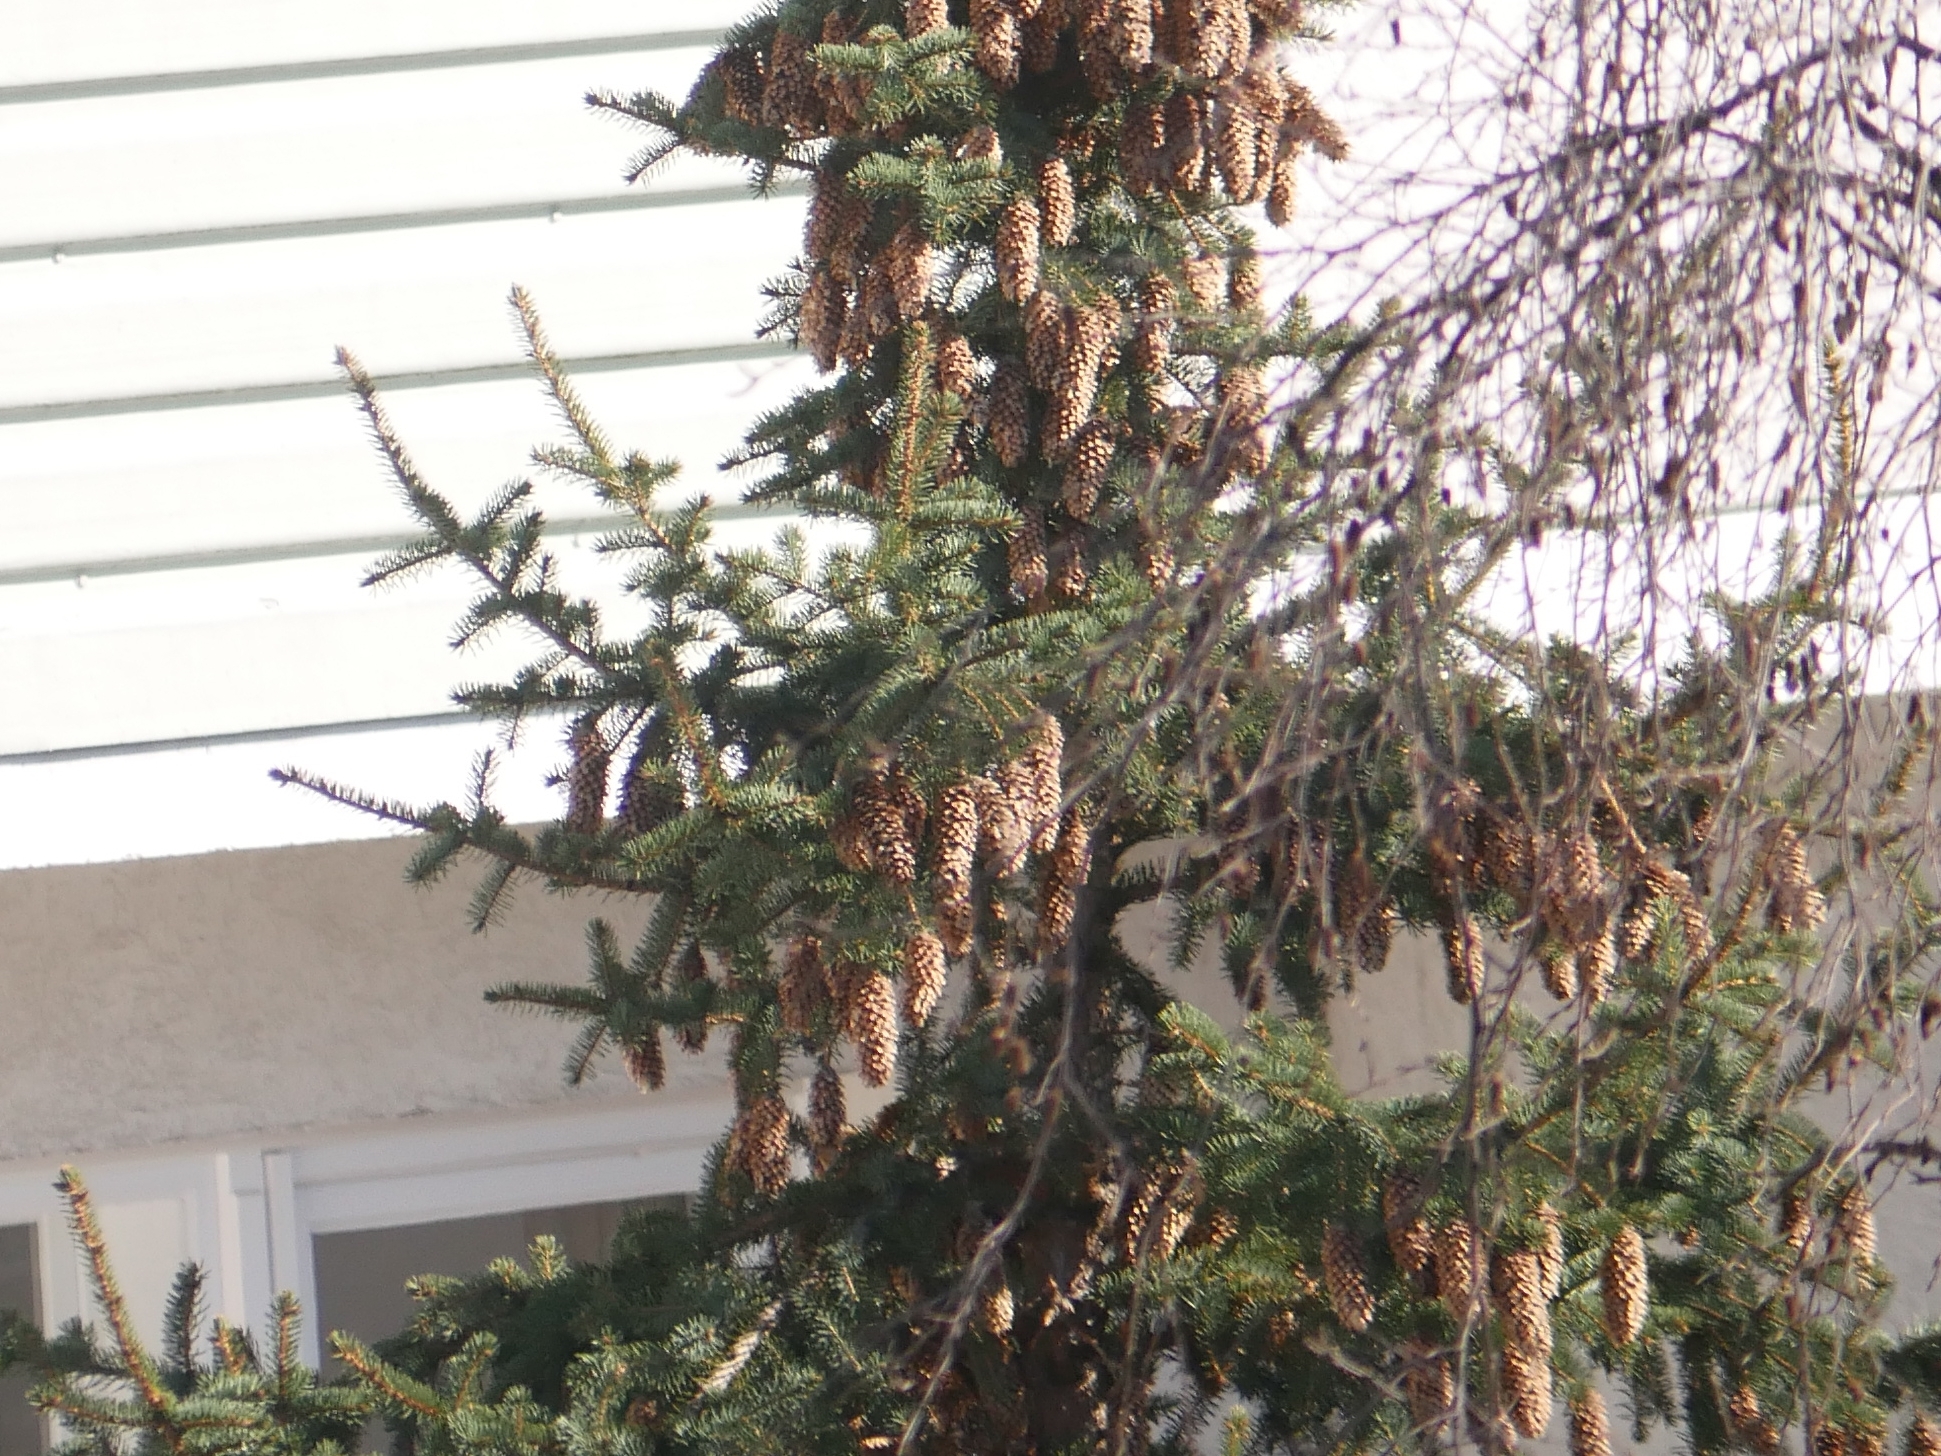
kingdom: Plantae
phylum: Tracheophyta
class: Pinopsida
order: Pinales
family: Pinaceae
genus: Picea
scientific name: Picea abies
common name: Norway spruce
